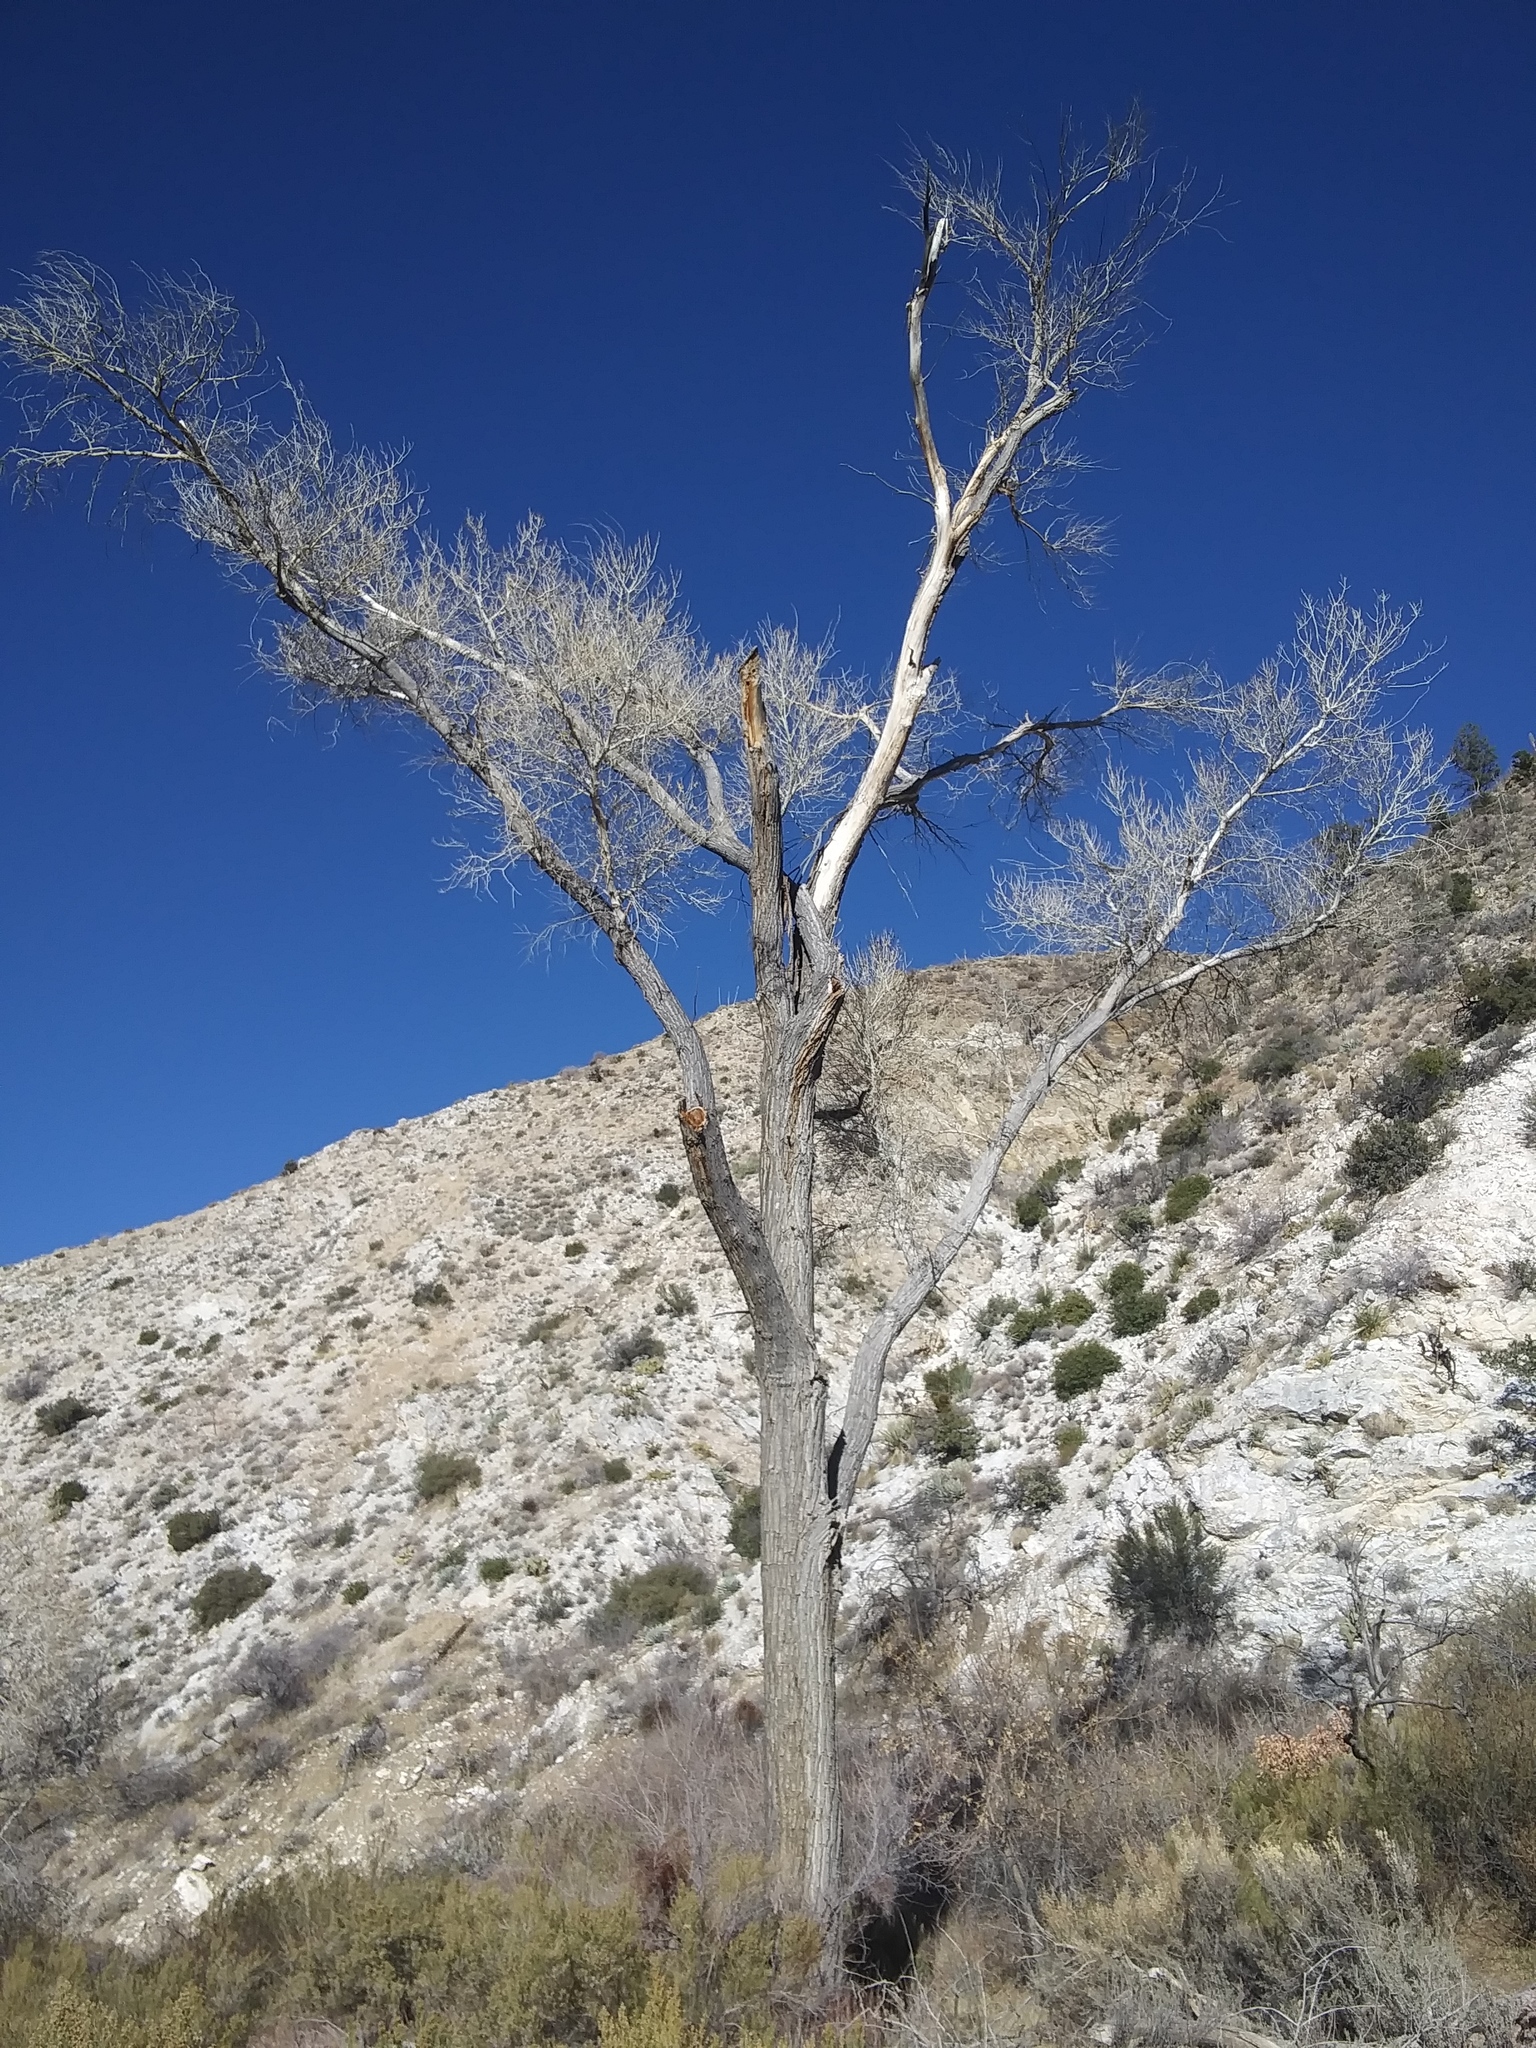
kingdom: Plantae
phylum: Tracheophyta
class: Magnoliopsida
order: Malpighiales
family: Salicaceae
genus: Populus
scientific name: Populus fremontii
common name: Fremont's cottonwood
